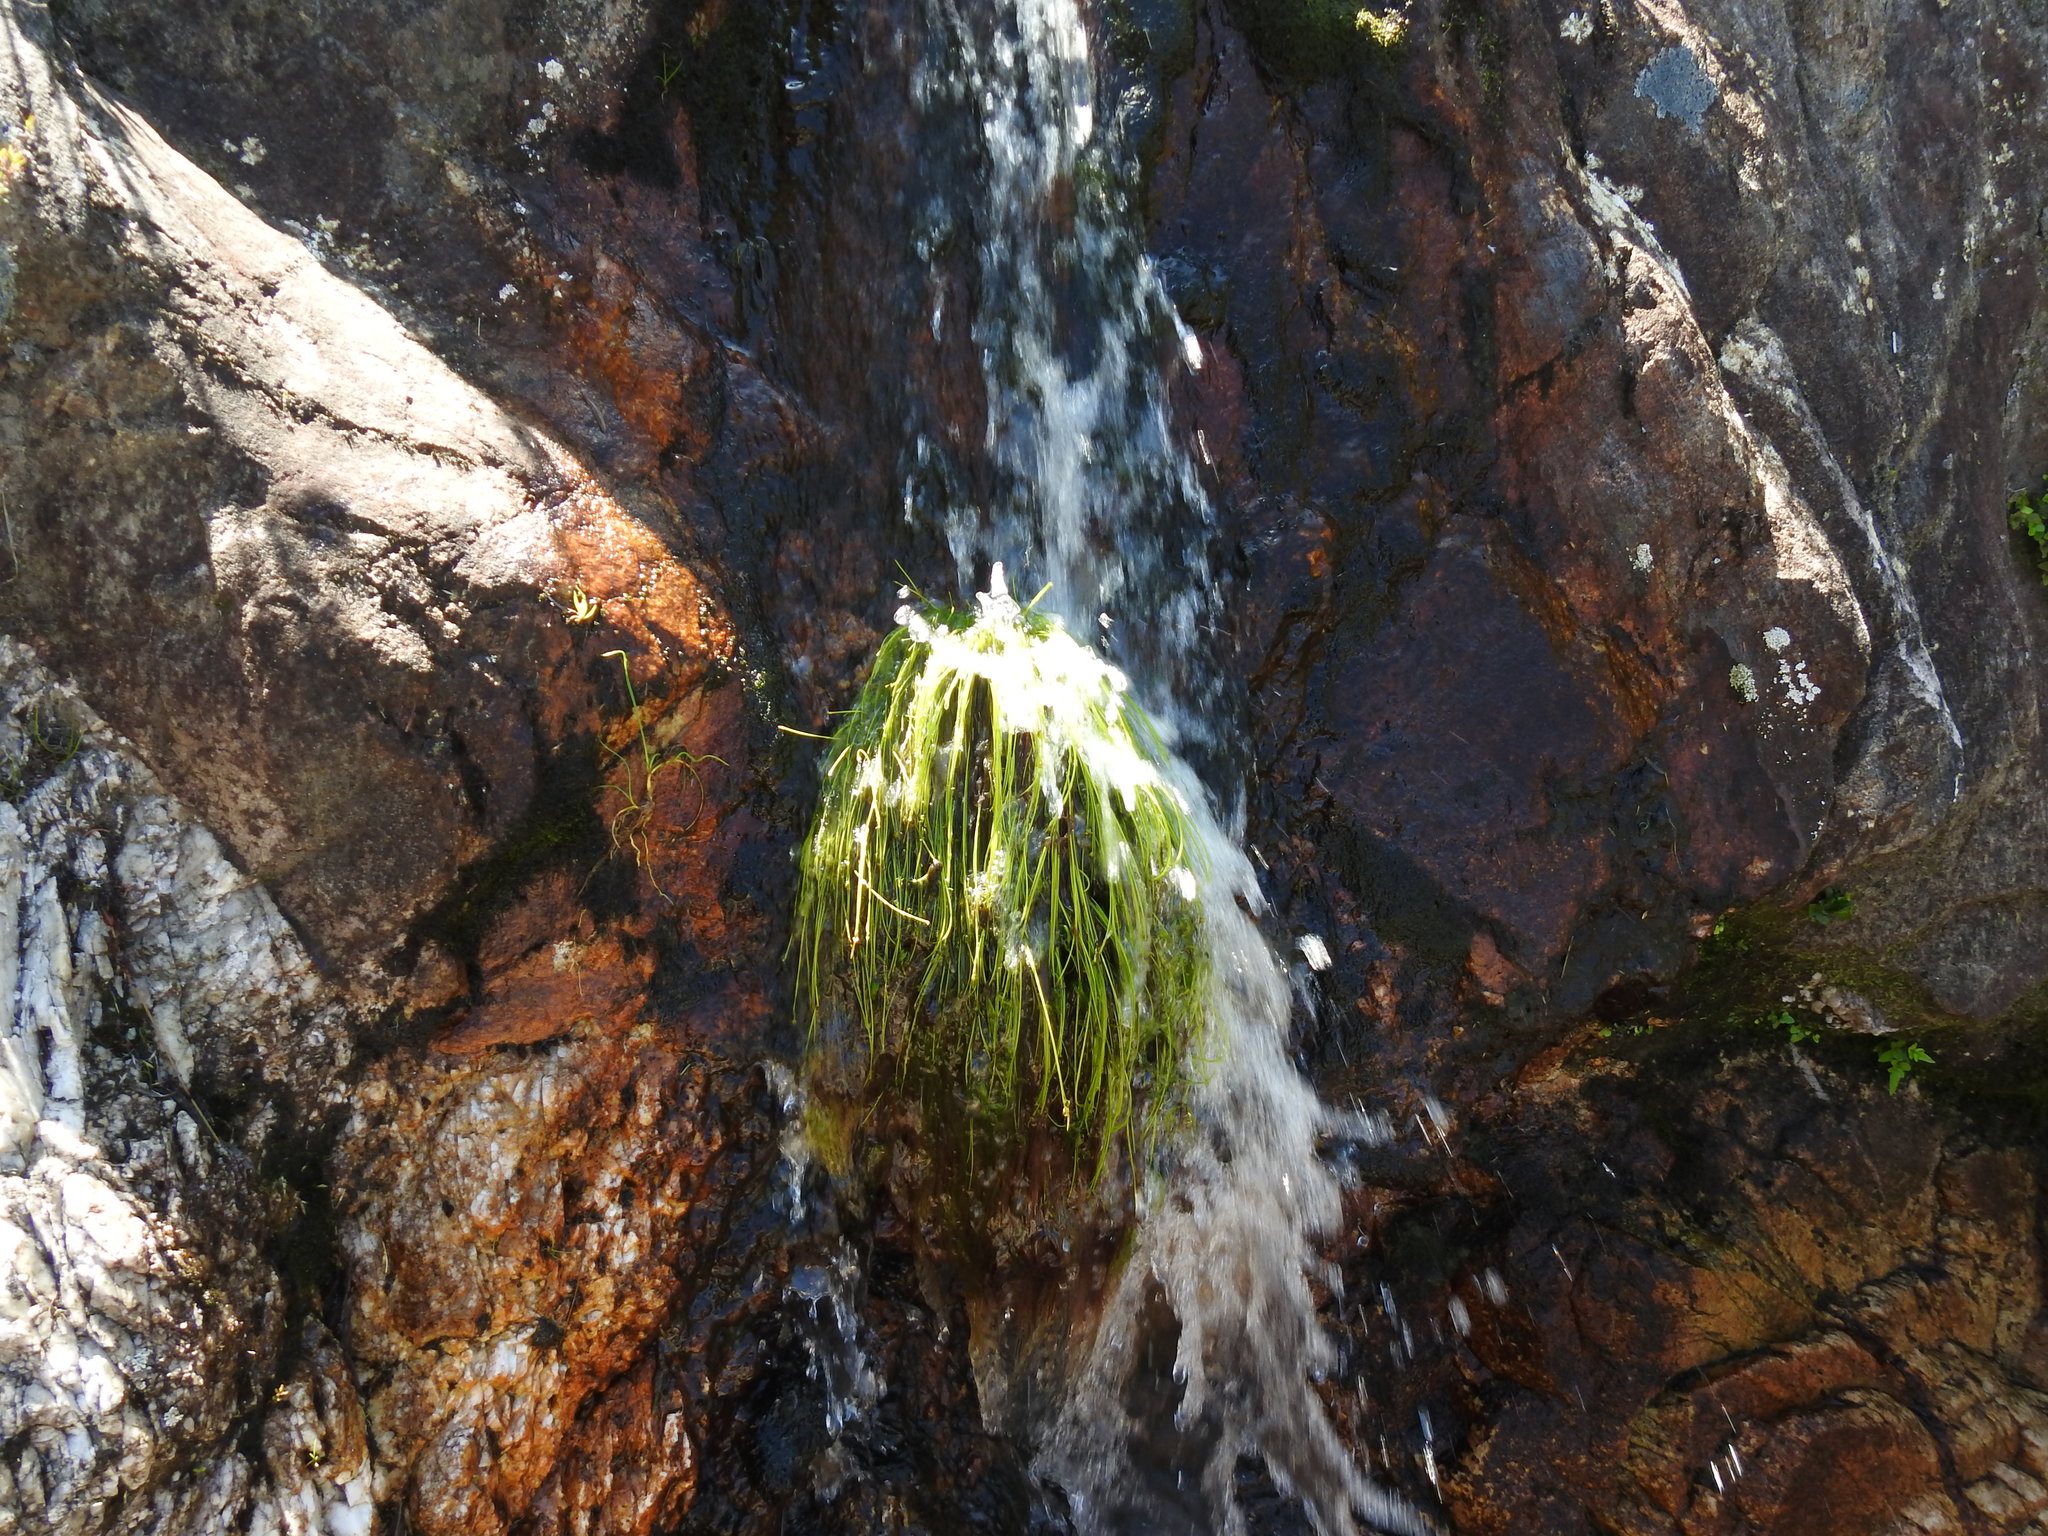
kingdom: Plantae
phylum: Tracheophyta
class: Liliopsida
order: Poales
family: Cyperaceae
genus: Isolepis
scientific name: Isolepis digitata
